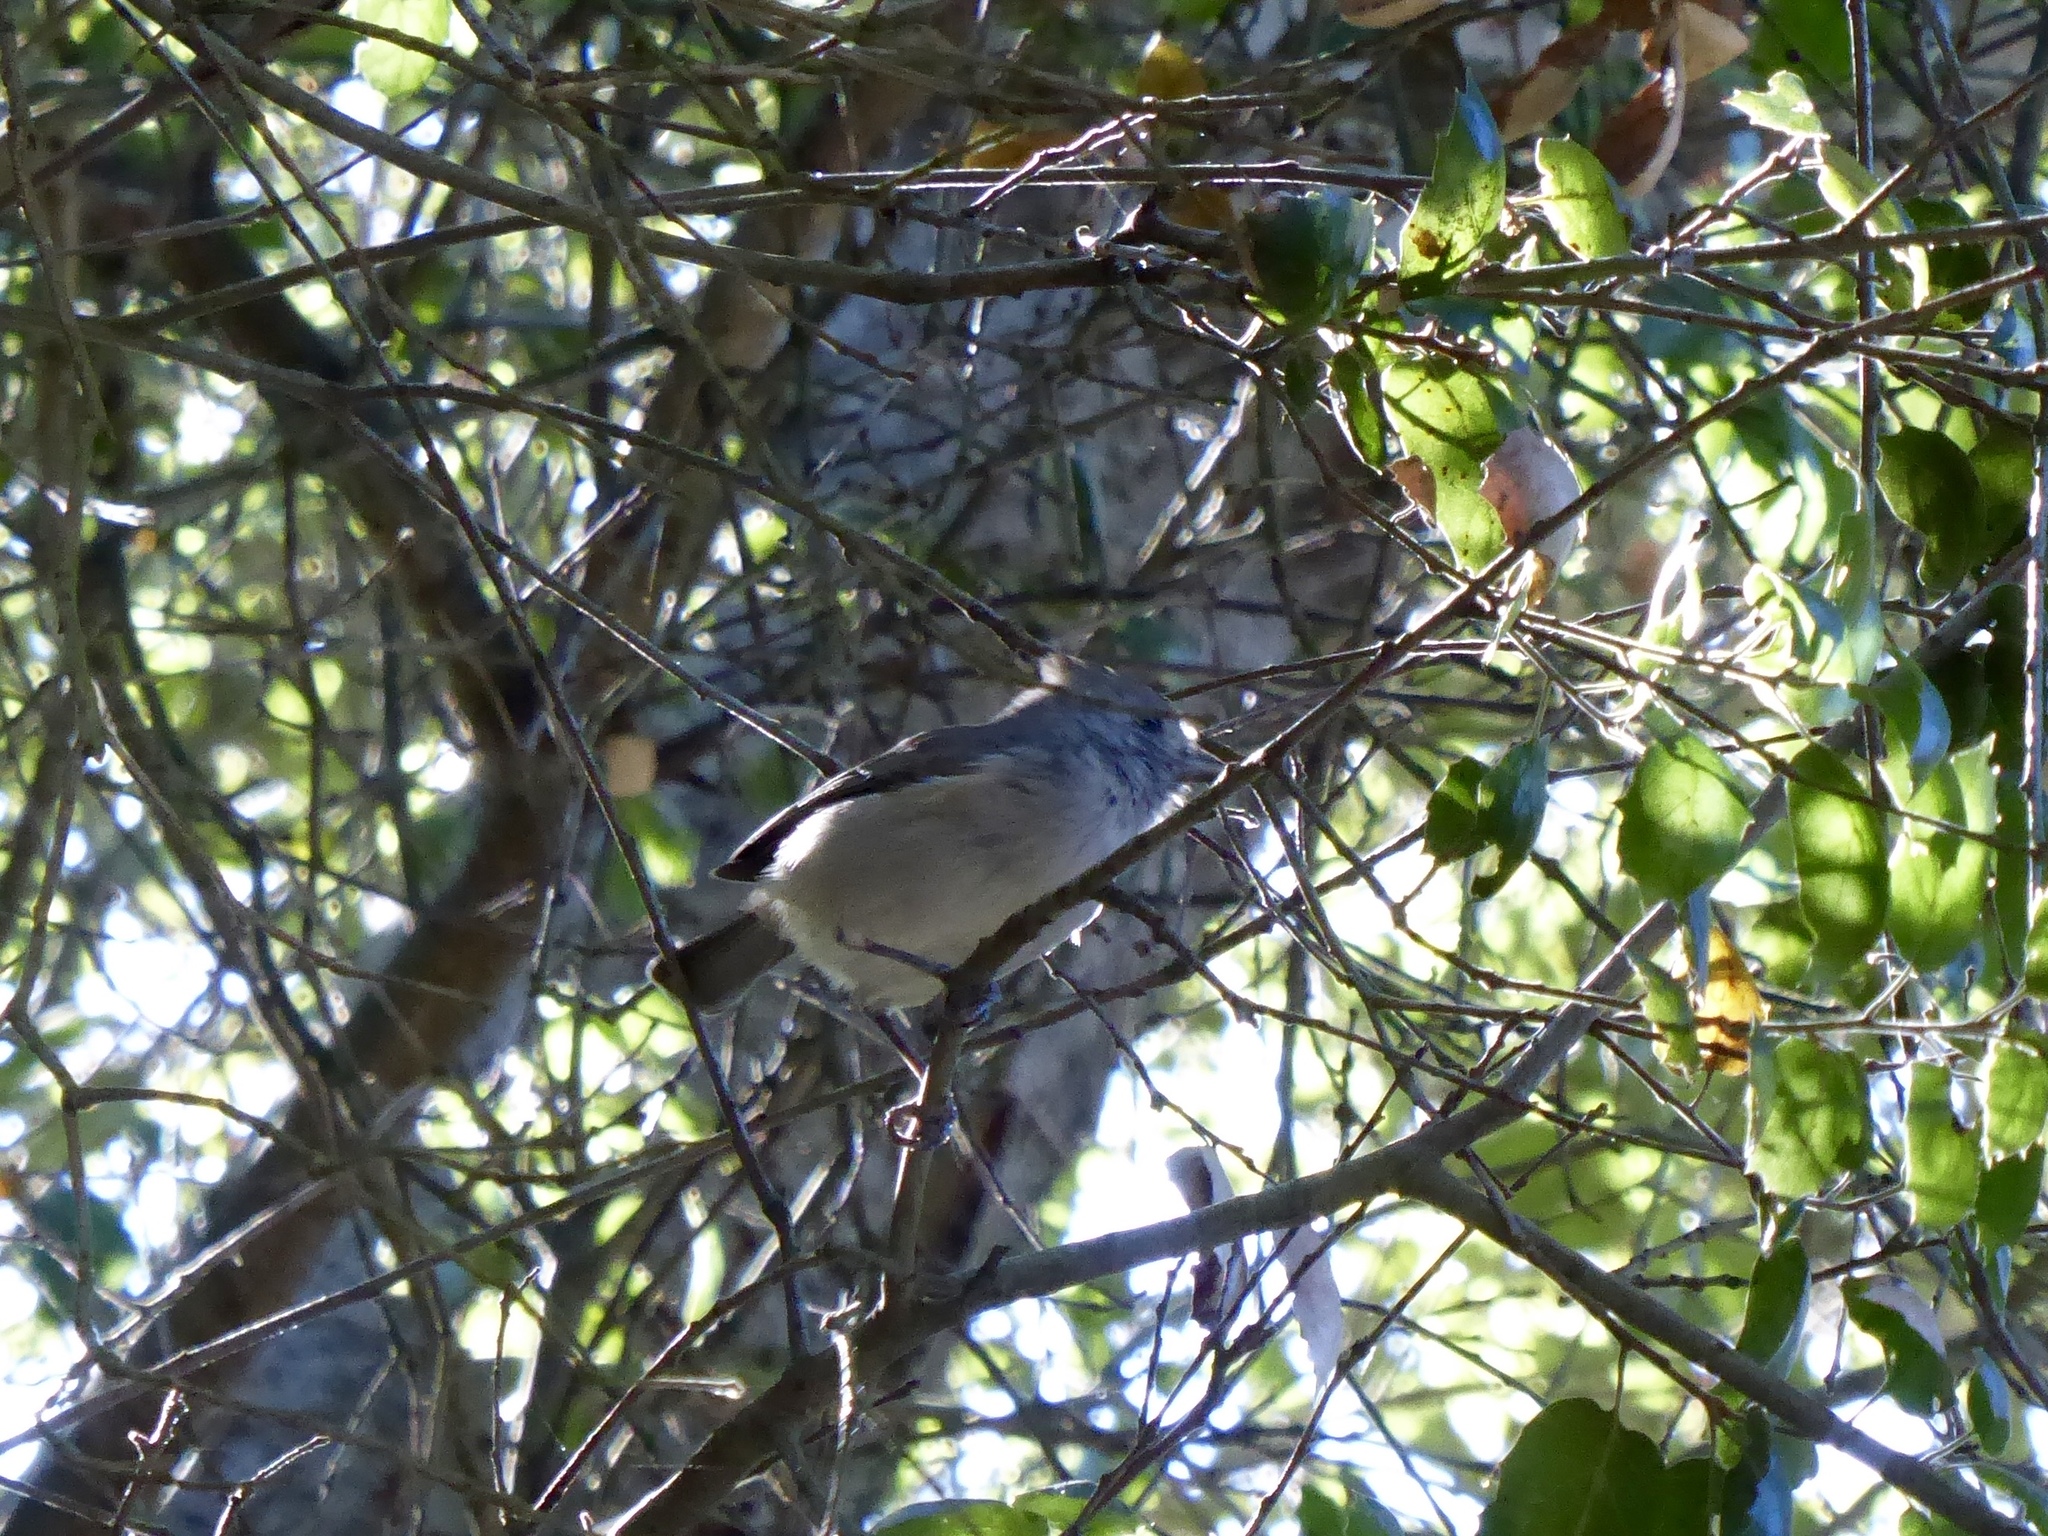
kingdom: Animalia
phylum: Chordata
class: Aves
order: Passeriformes
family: Paridae
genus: Baeolophus
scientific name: Baeolophus inornatus
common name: Oak titmouse
